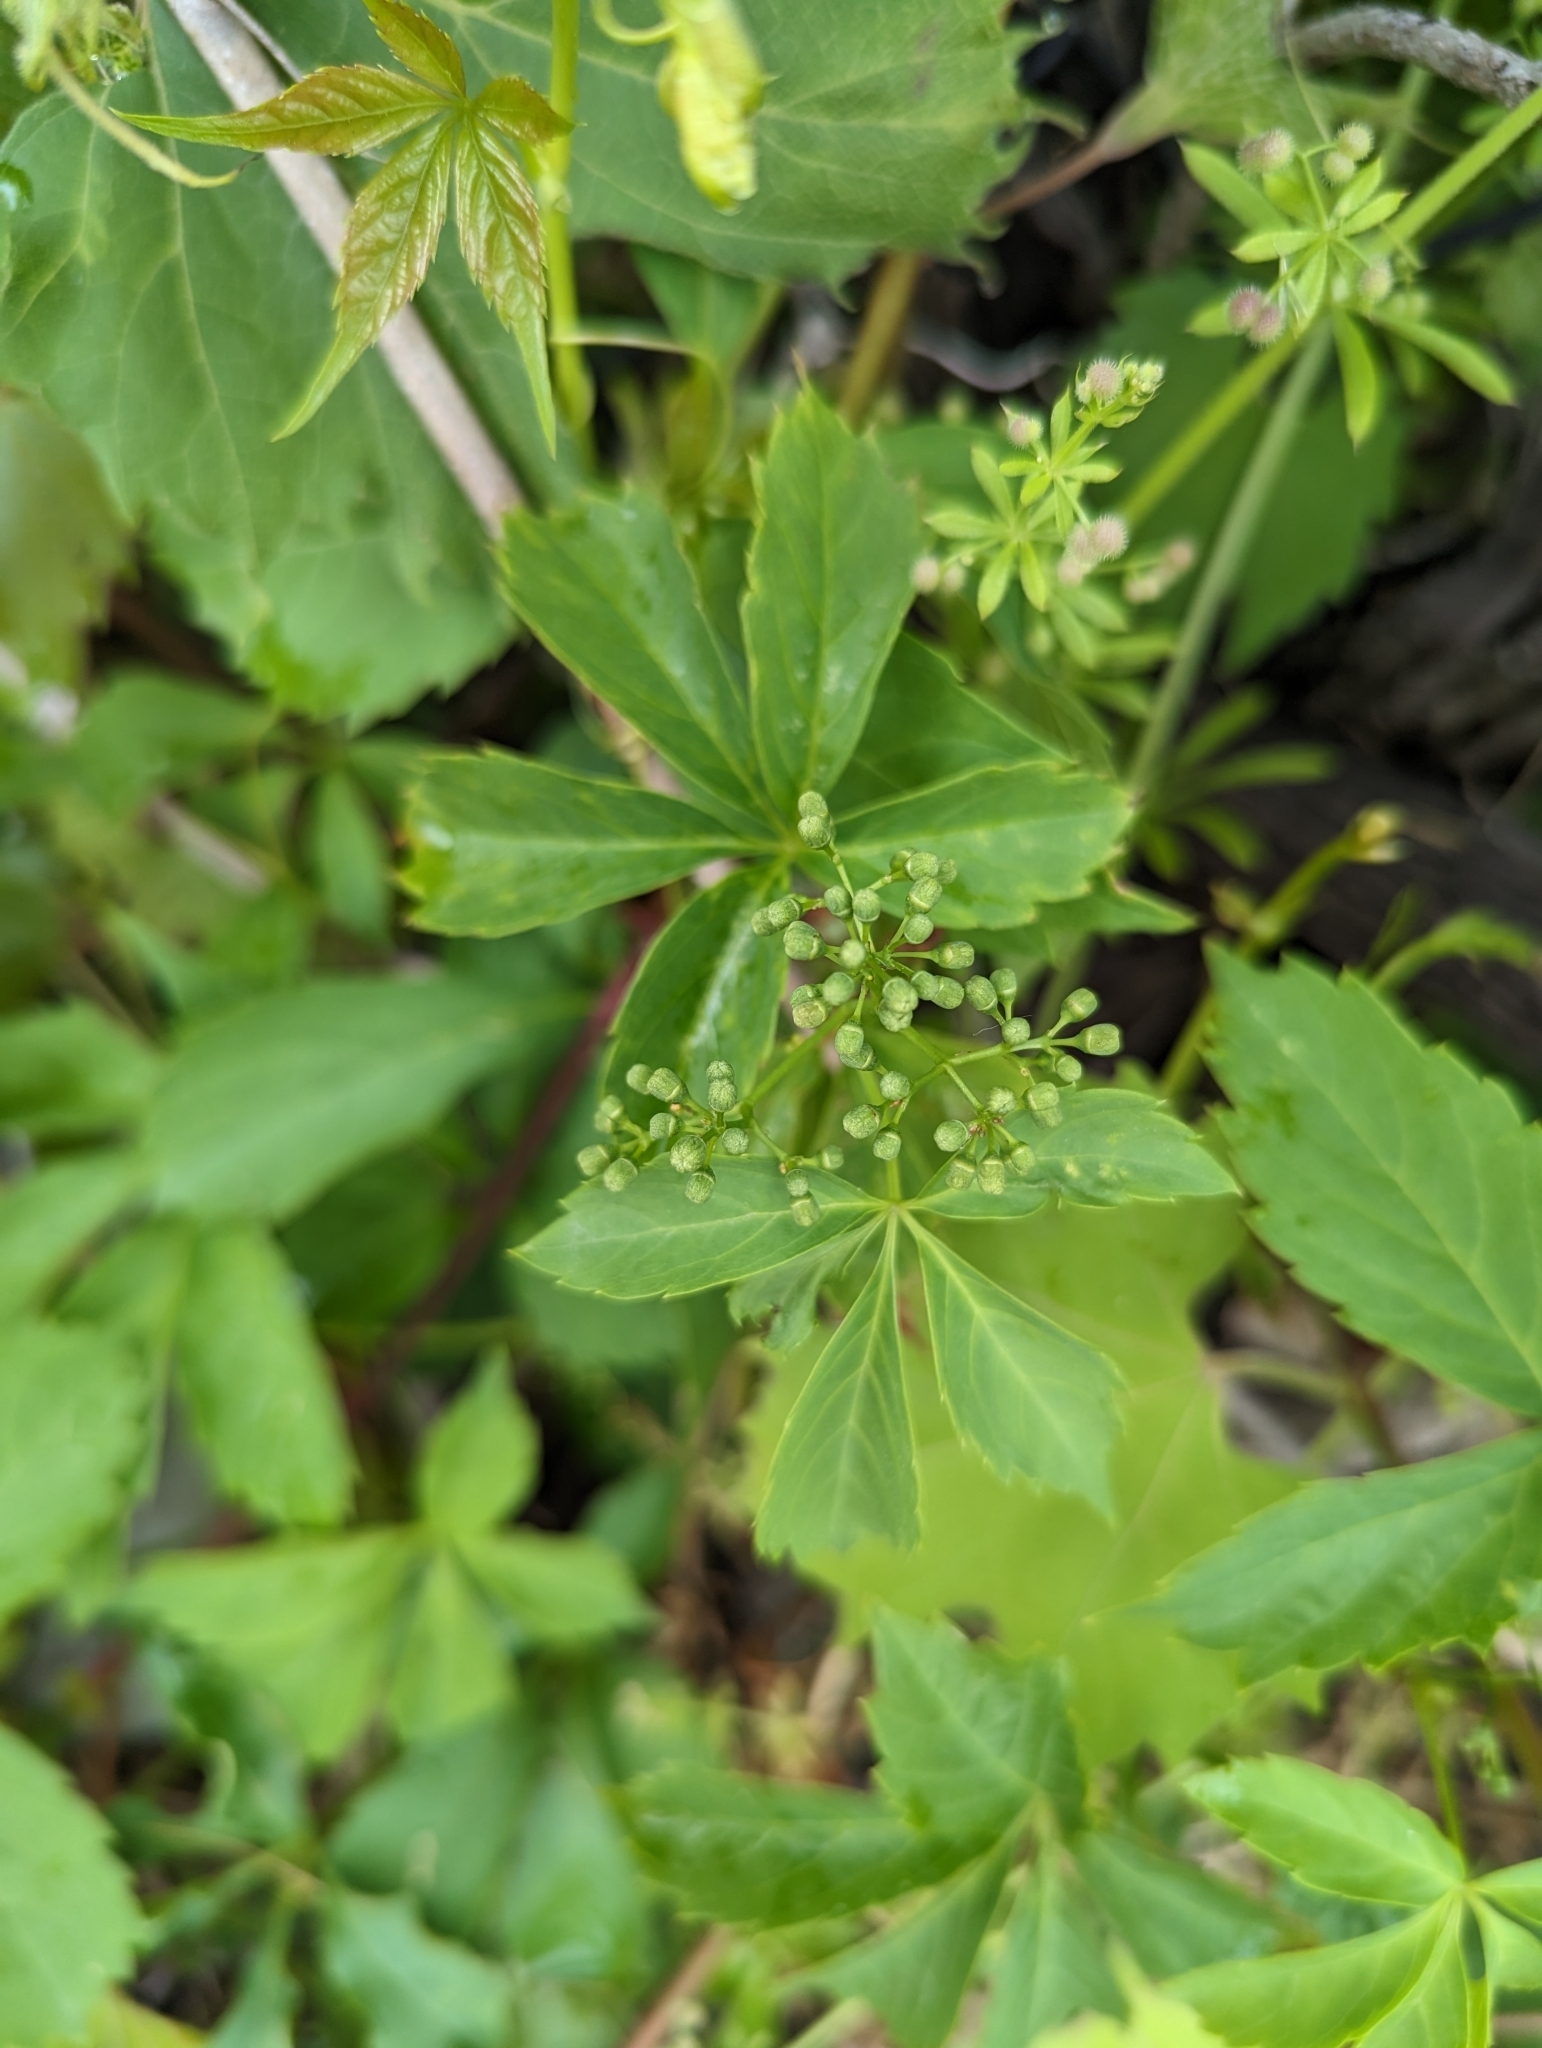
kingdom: Plantae
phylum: Tracheophyta
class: Magnoliopsida
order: Vitales
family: Vitaceae
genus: Parthenocissus
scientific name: Parthenocissus quinquefolia
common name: Virginia-creeper
